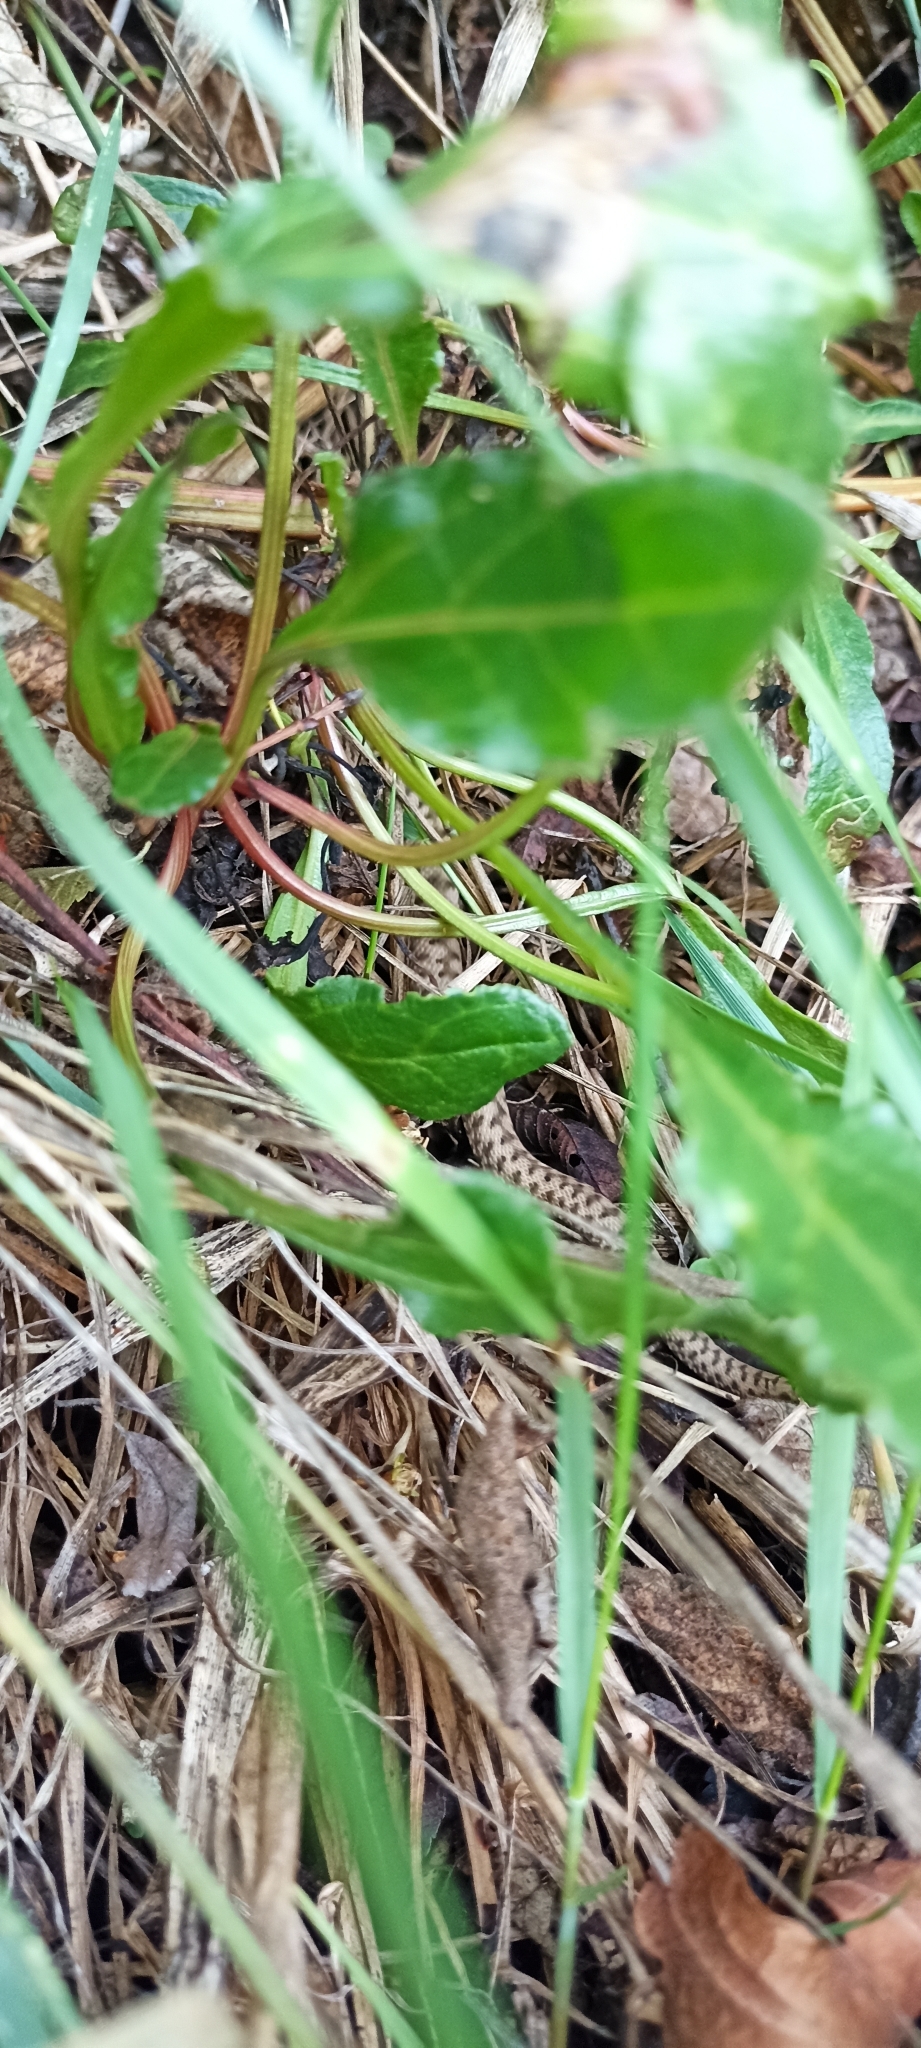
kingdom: Animalia
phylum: Chordata
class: Squamata
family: Viperidae
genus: Vipera
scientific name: Vipera aspis
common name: Asp viper
